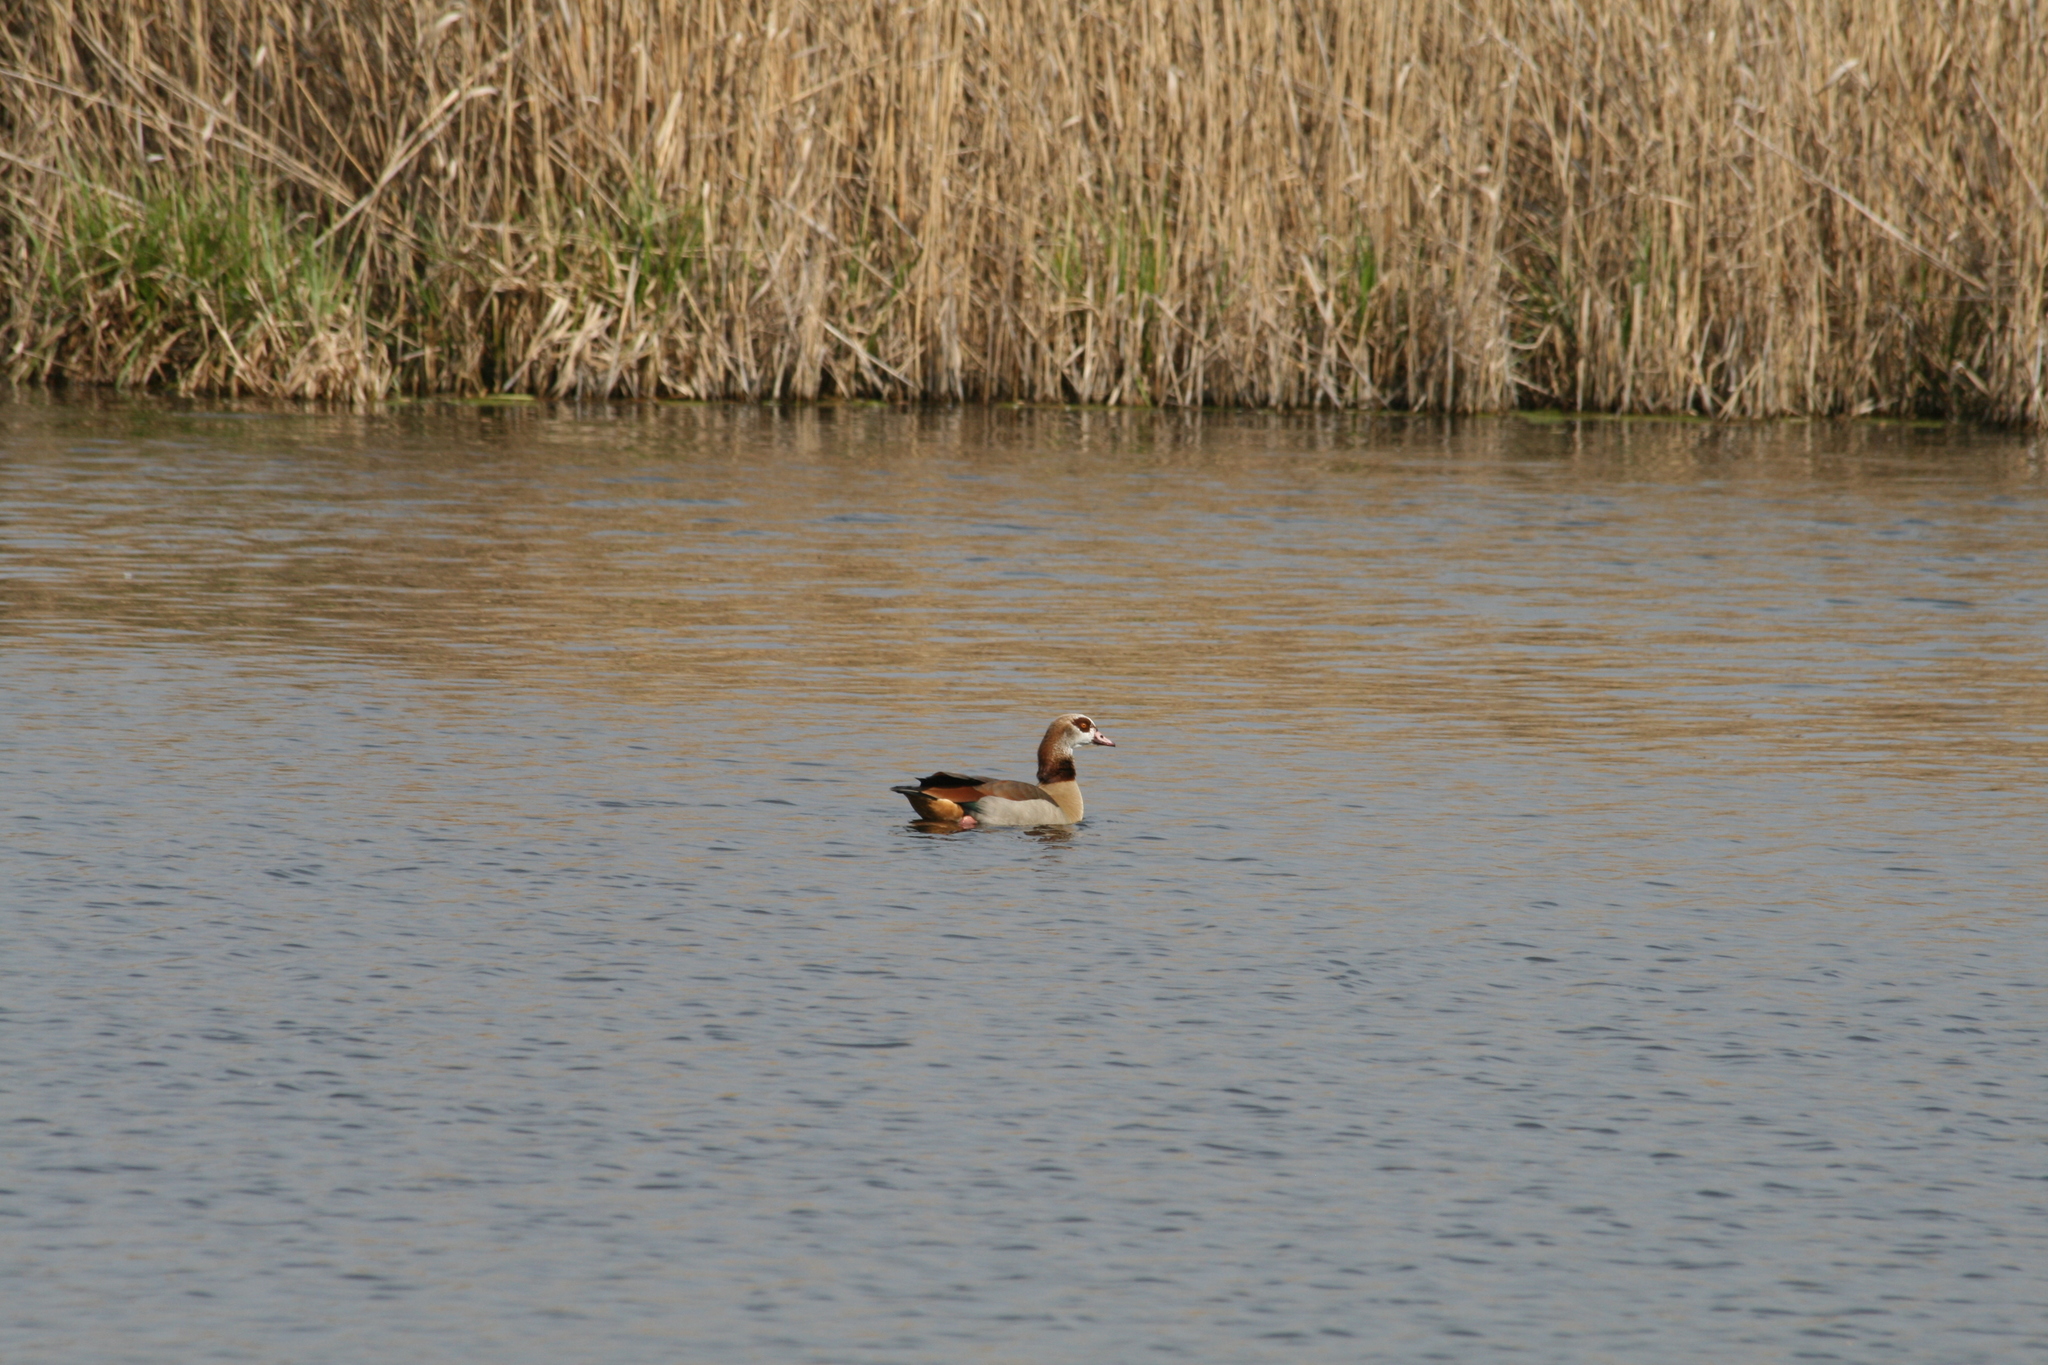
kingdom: Animalia
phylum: Chordata
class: Aves
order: Anseriformes
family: Anatidae
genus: Alopochen
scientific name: Alopochen aegyptiaca
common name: Egyptian goose
